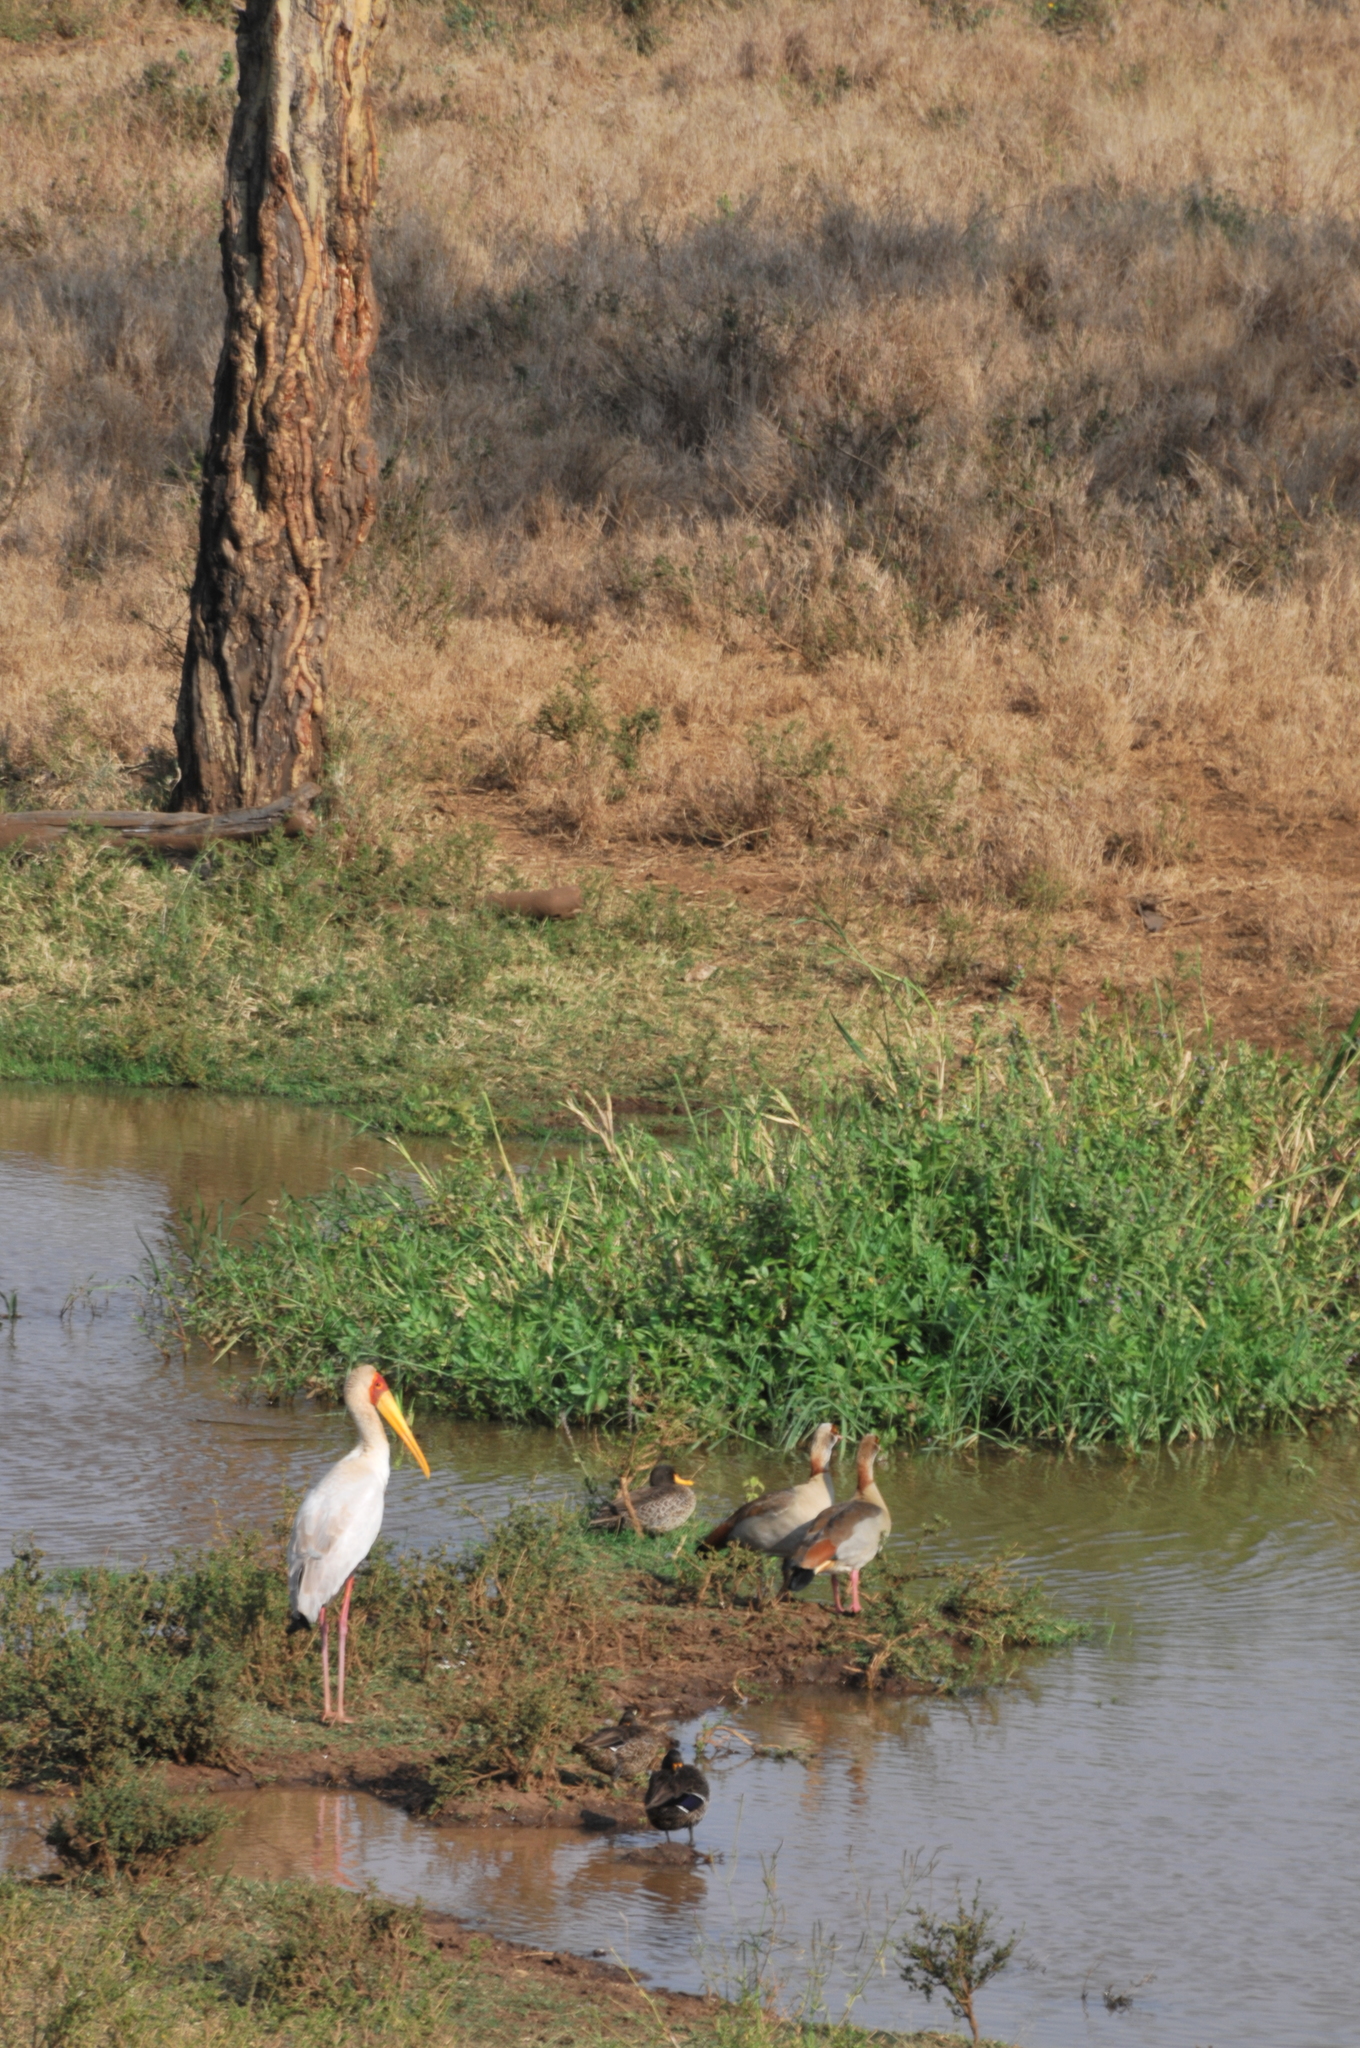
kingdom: Animalia
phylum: Chordata
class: Aves
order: Anseriformes
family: Anatidae
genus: Alopochen
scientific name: Alopochen aegyptiaca
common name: Egyptian goose
